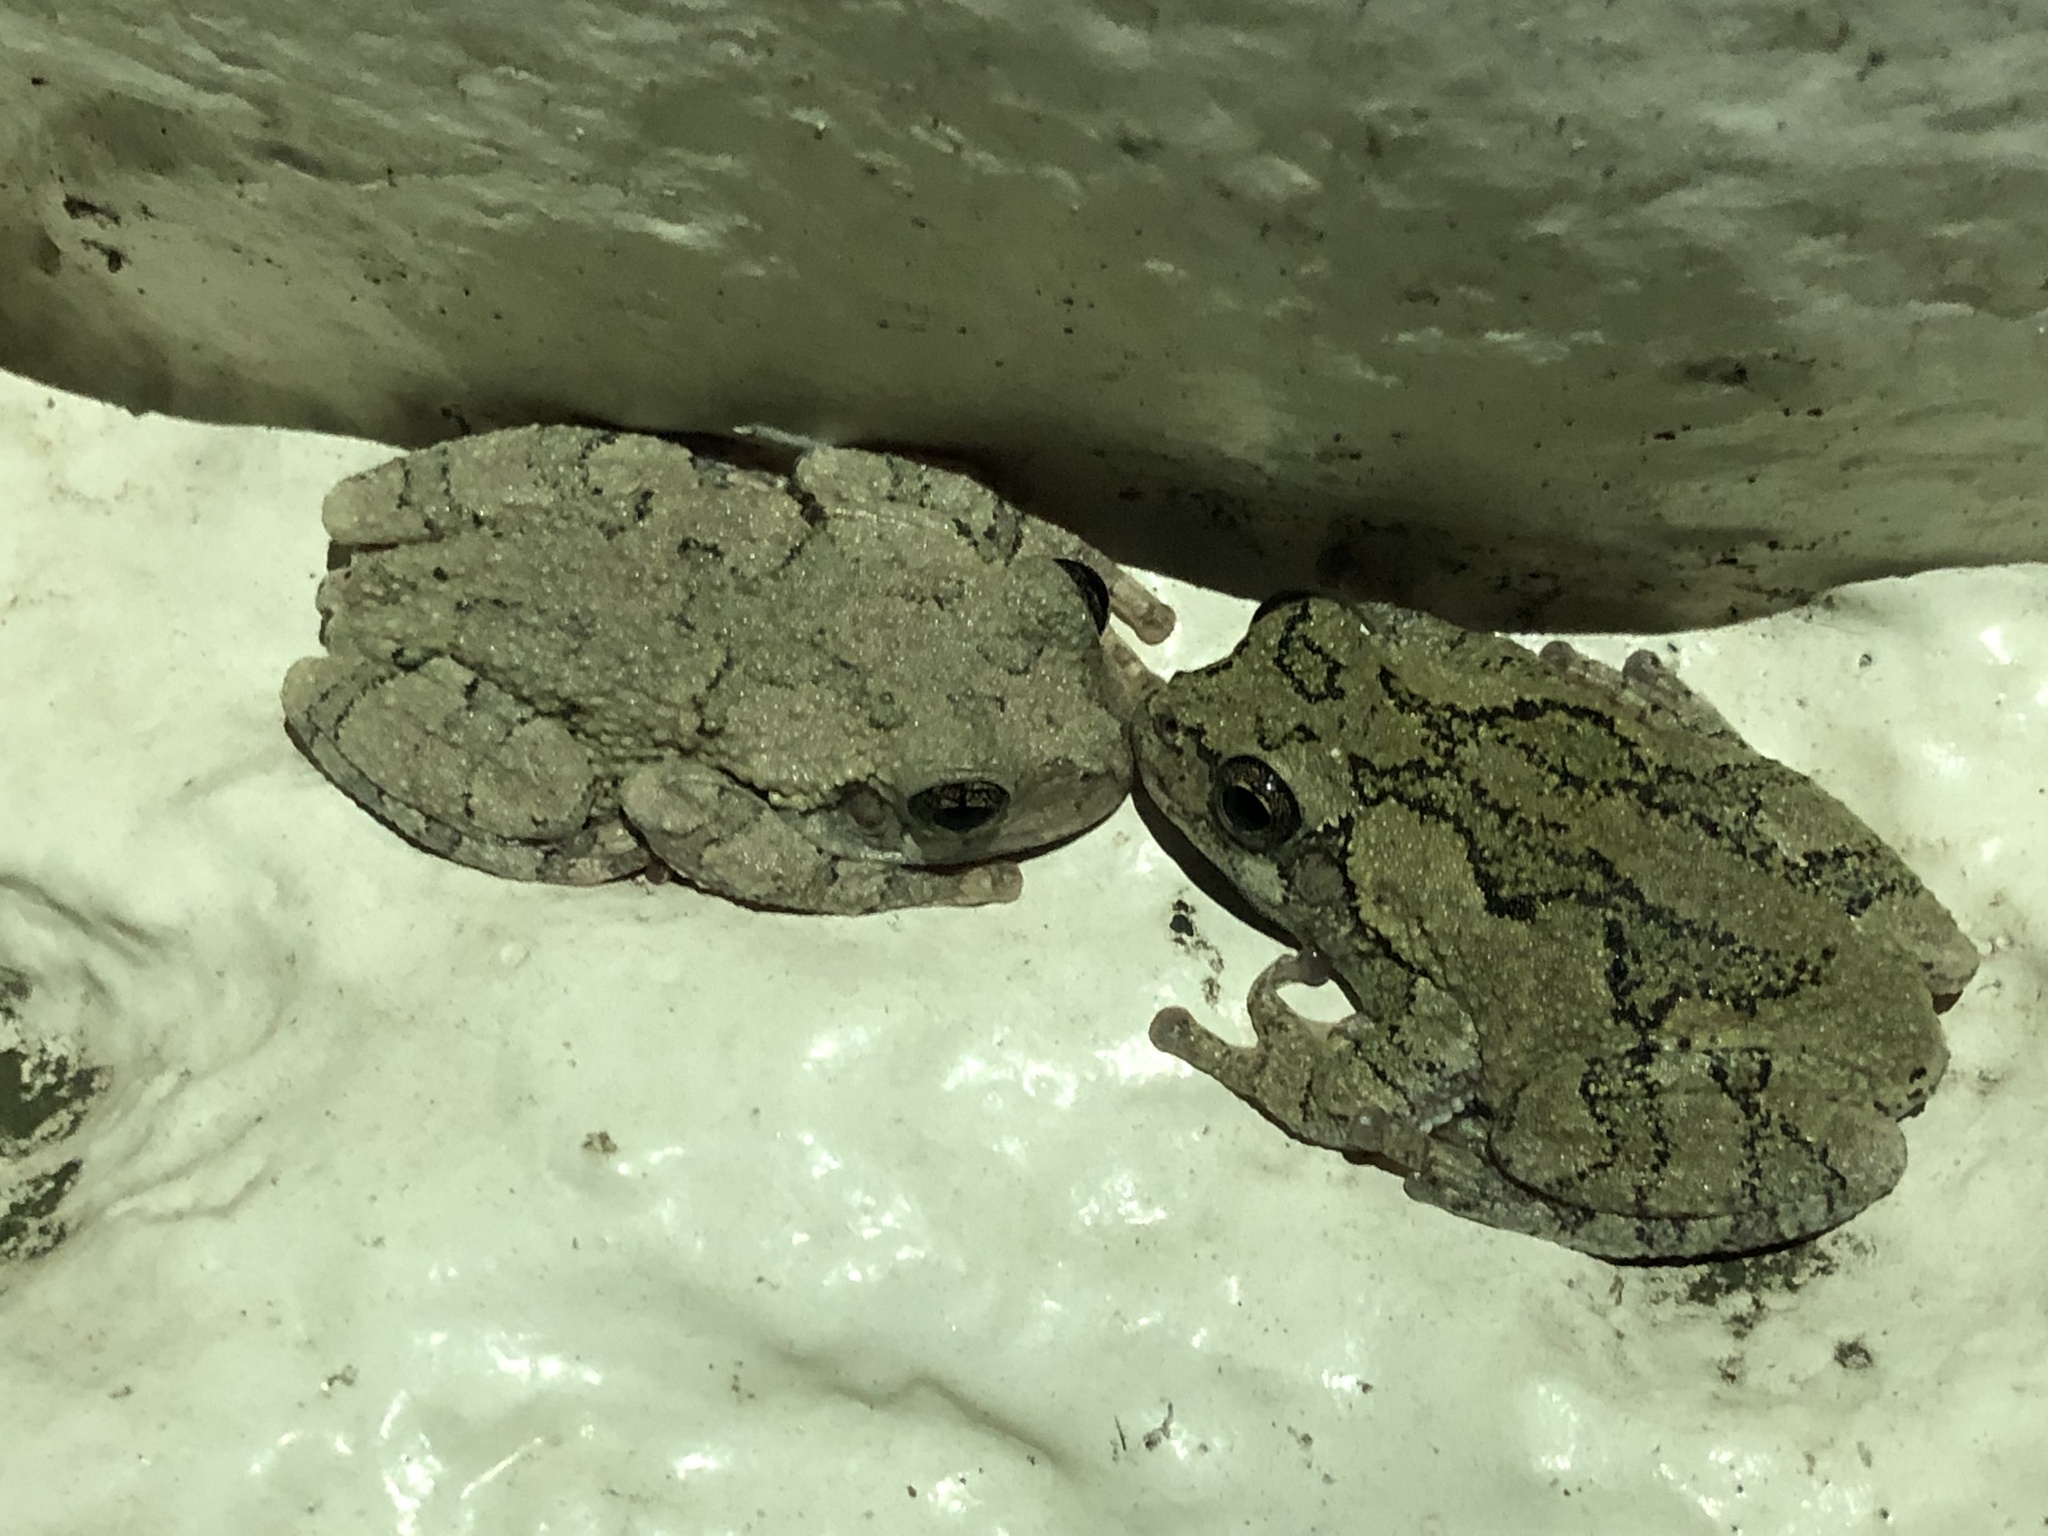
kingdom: Animalia
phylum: Chordata
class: Amphibia
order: Anura
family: Hylidae
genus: Hyla
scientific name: Hyla
